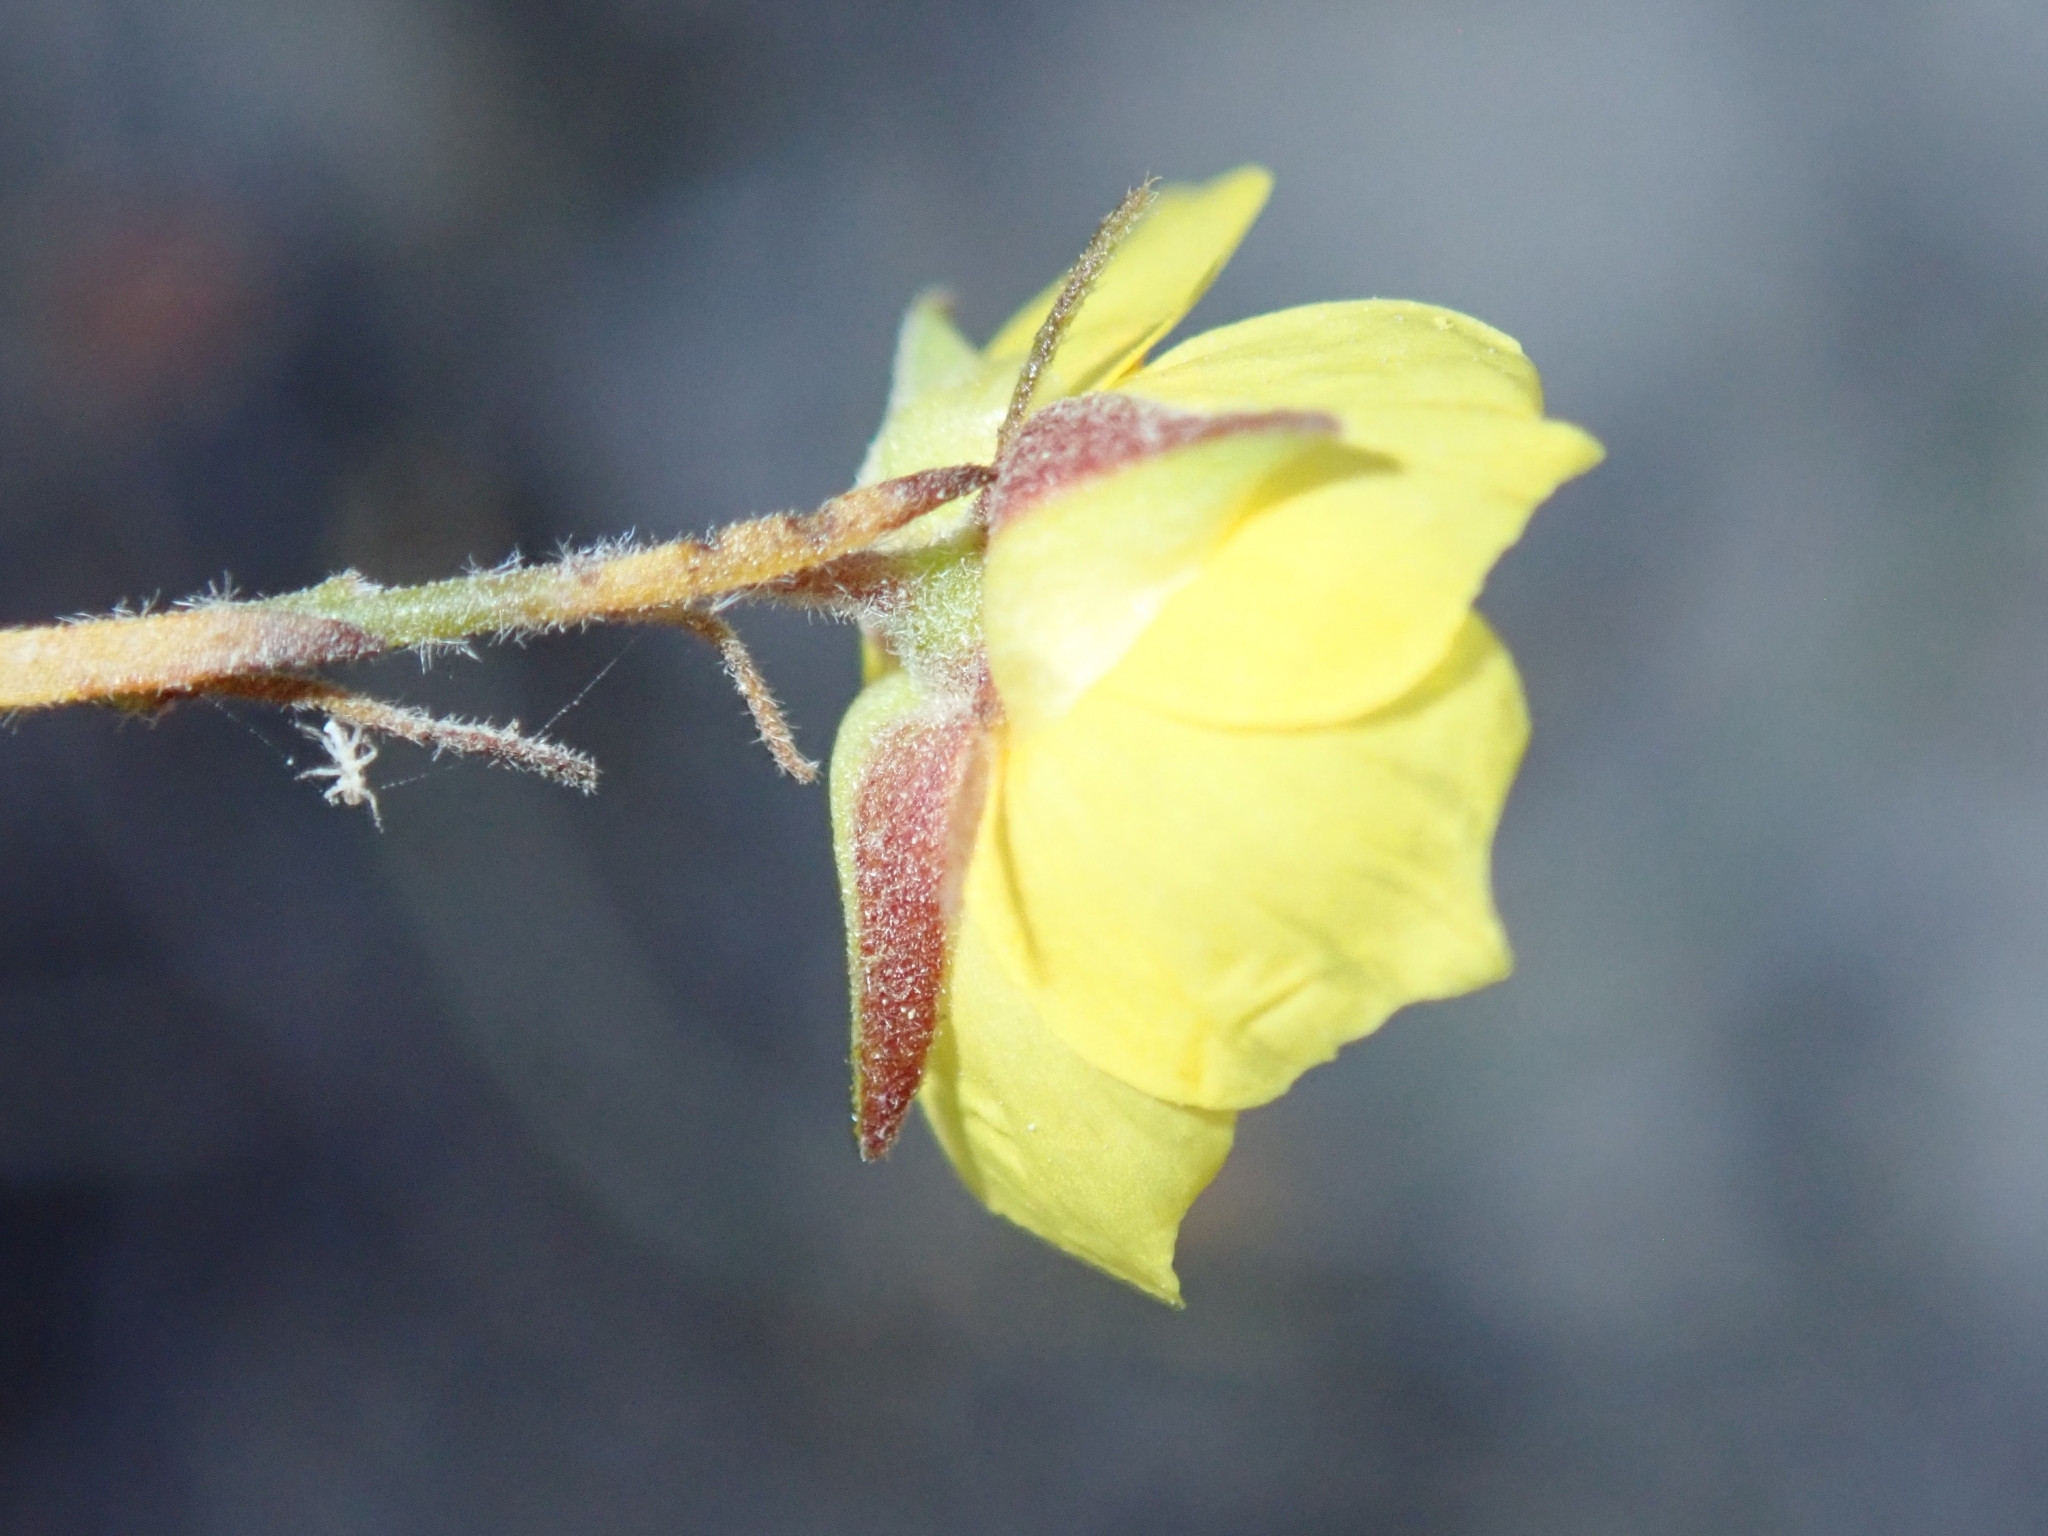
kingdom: Plantae
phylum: Tracheophyta
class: Magnoliopsida
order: Malvales
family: Cistaceae
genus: Crocanthemum
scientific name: Crocanthemum scoparium
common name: Broom-rose
